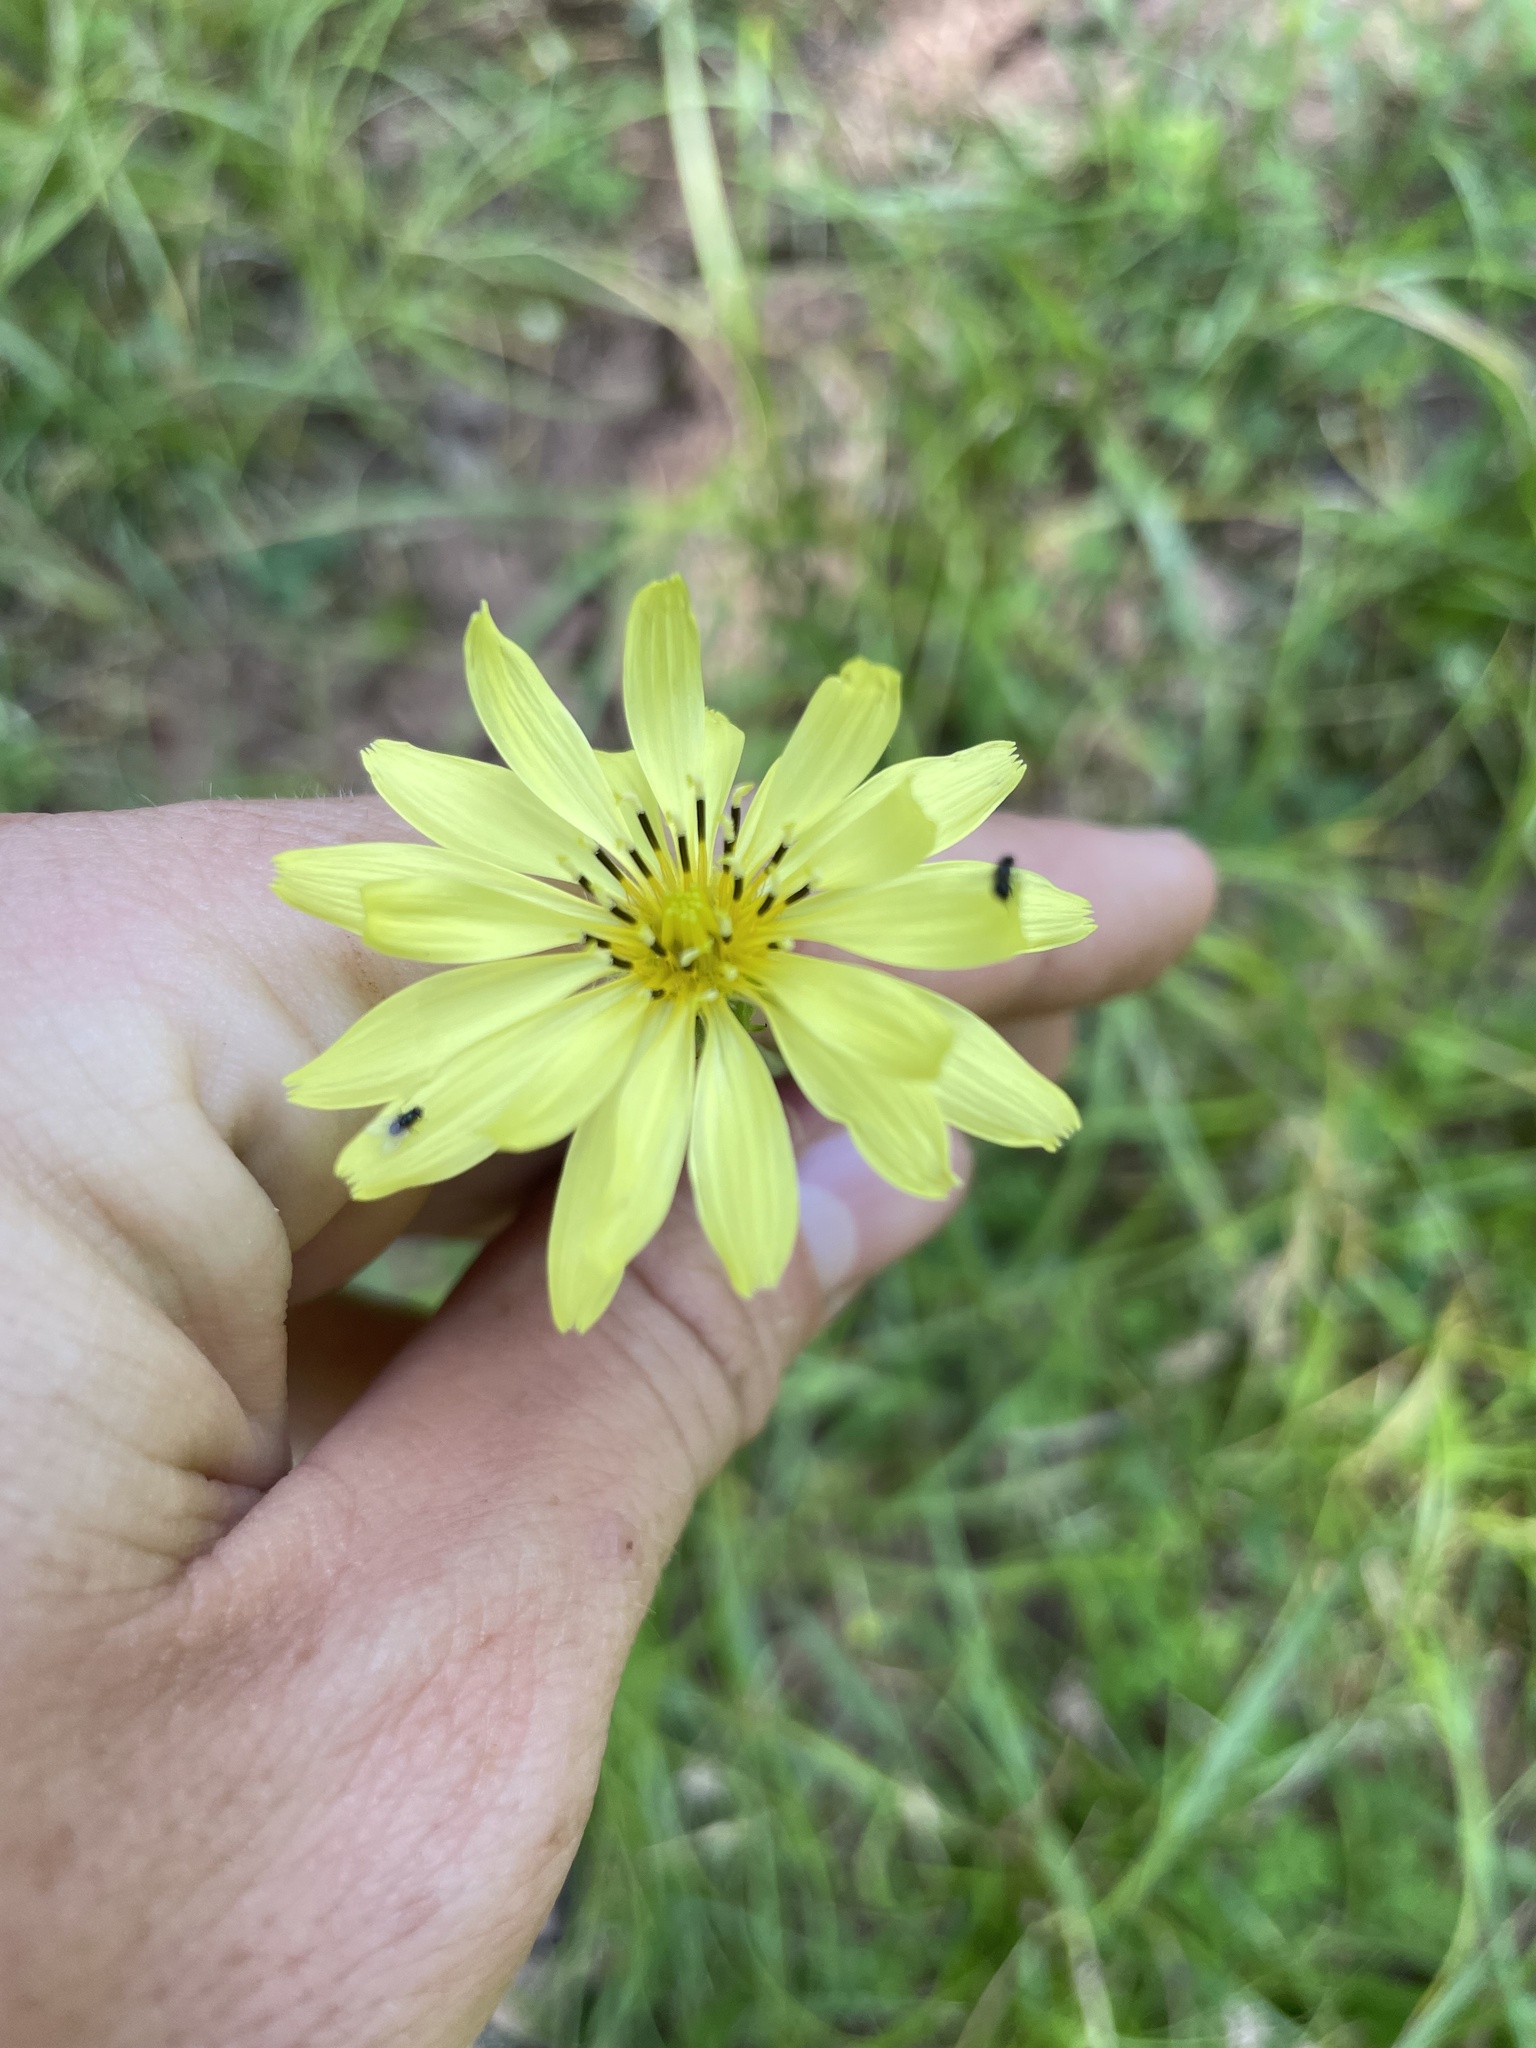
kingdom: Plantae
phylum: Tracheophyta
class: Magnoliopsida
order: Asterales
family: Asteraceae
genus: Pyrrhopappus
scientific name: Pyrrhopappus pauciflorus
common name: Texas false dandelion
